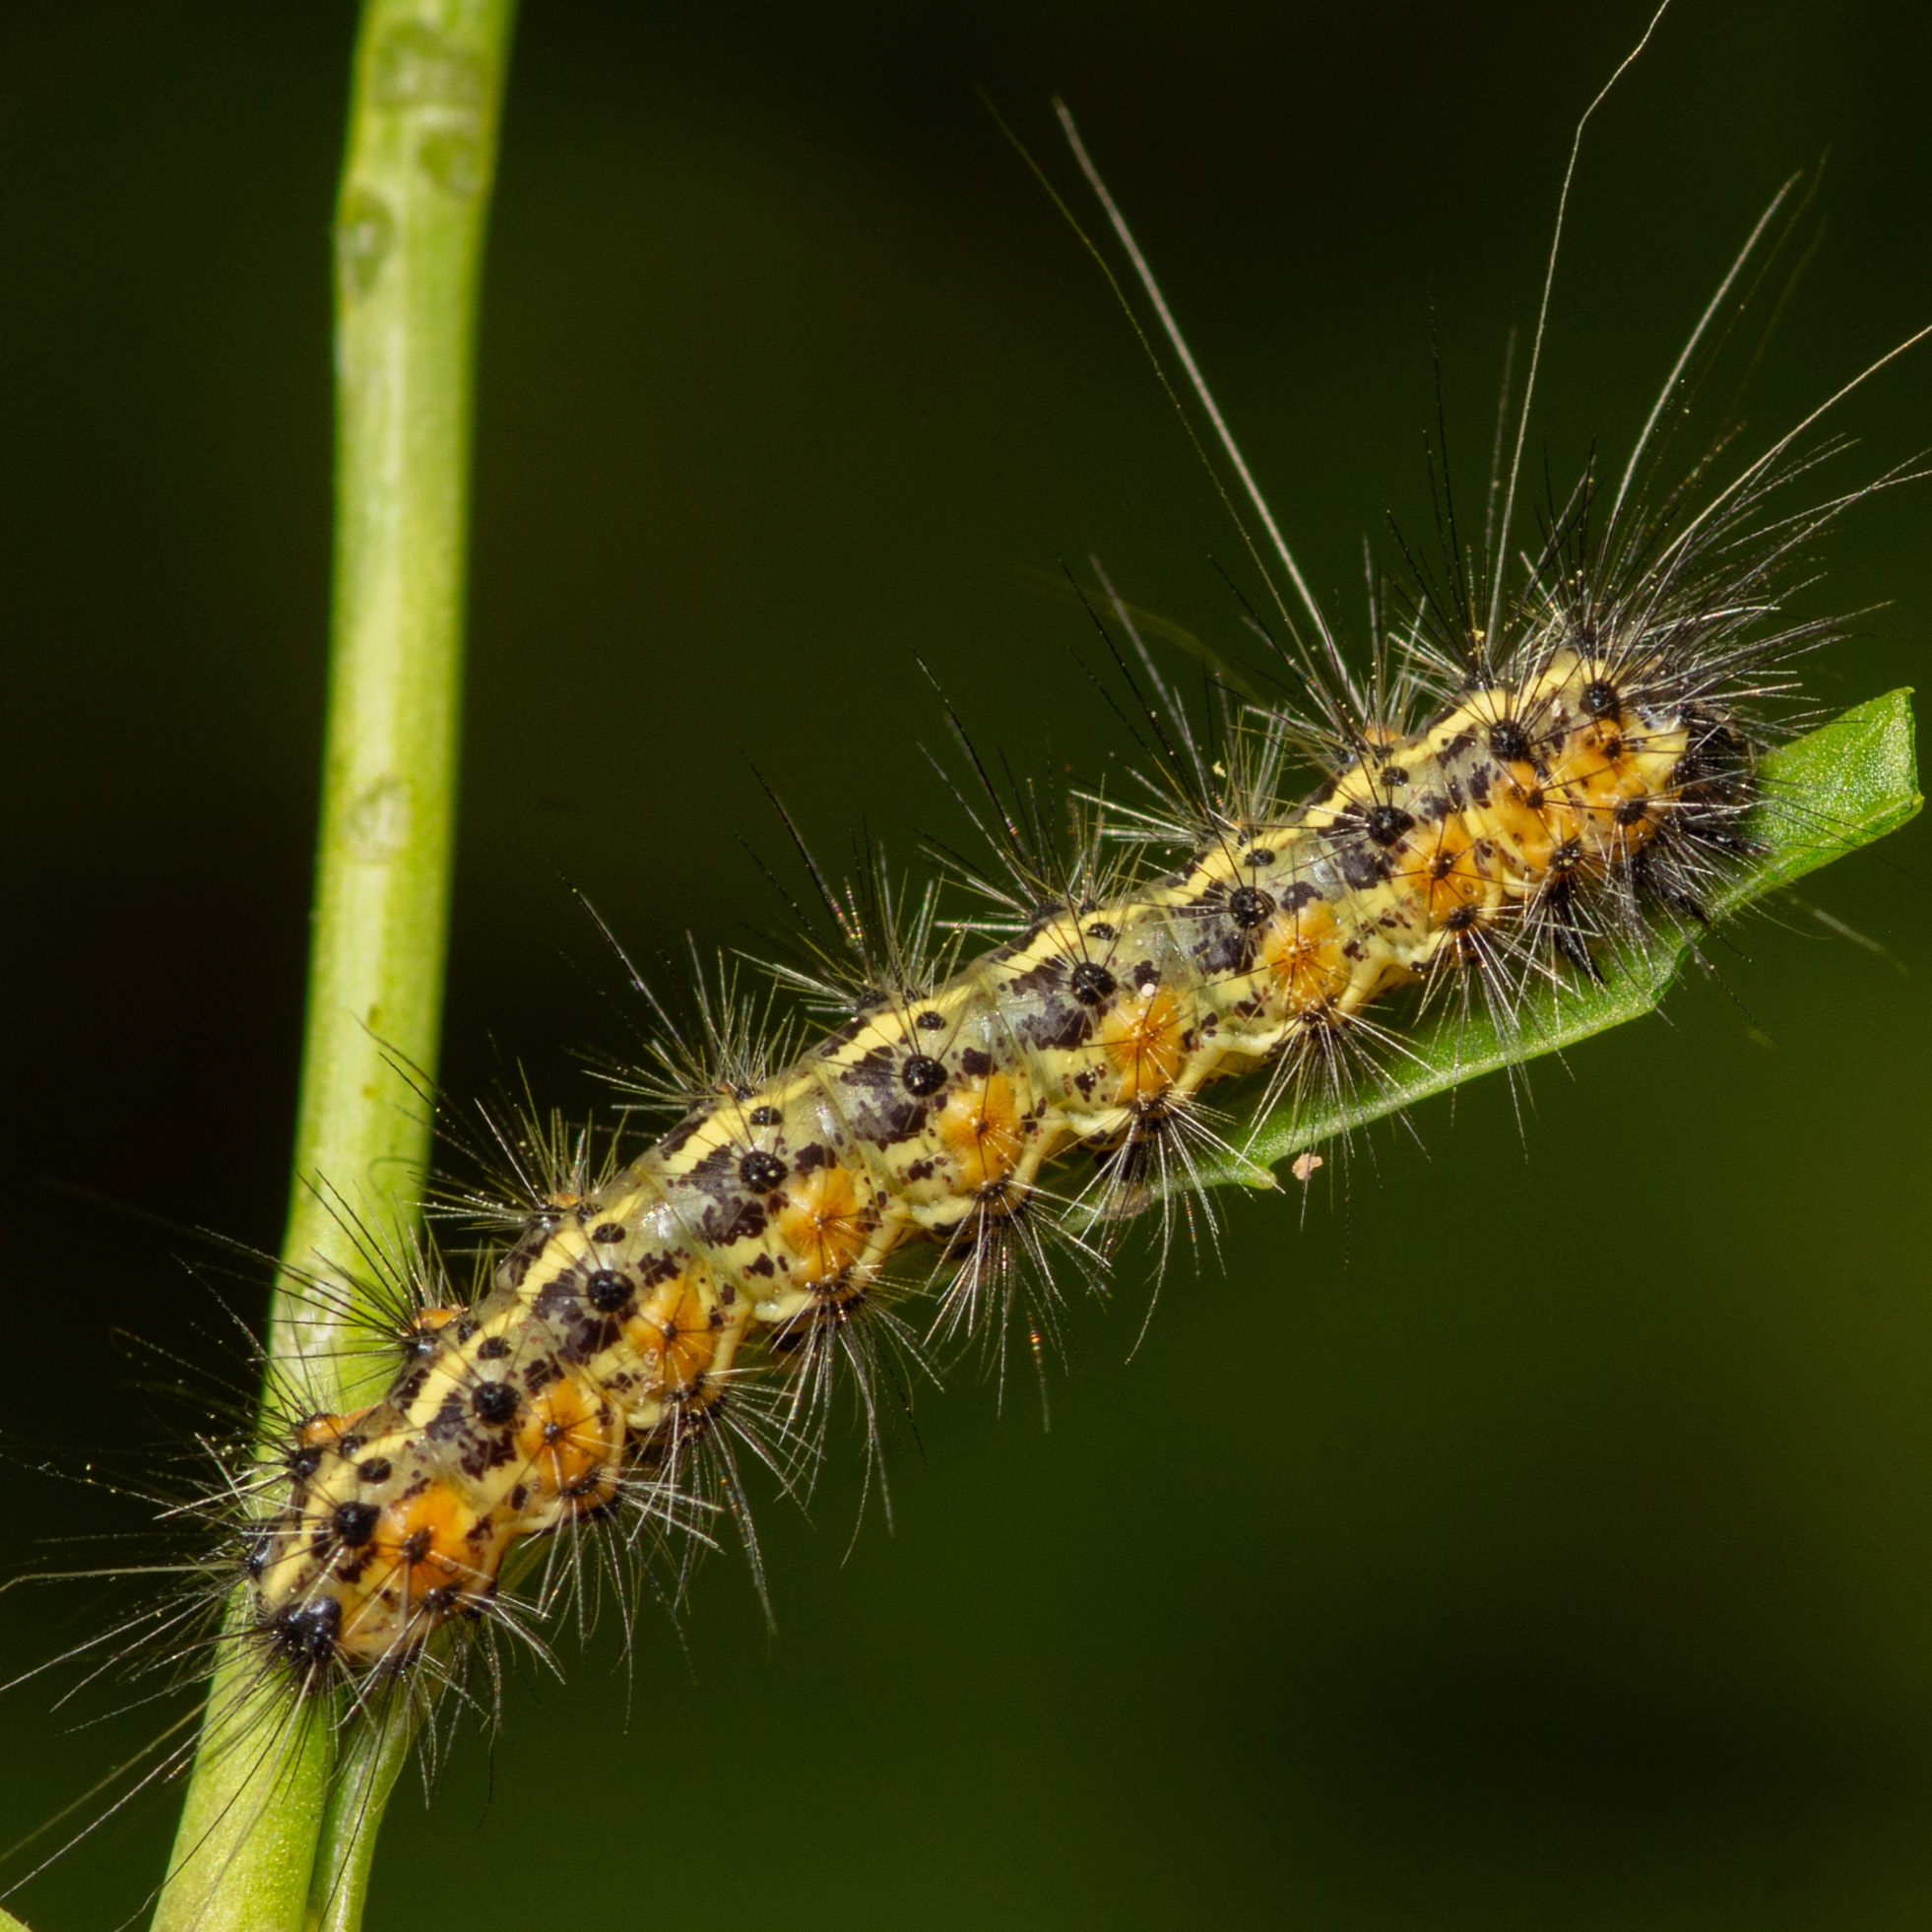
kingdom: Animalia
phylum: Arthropoda
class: Insecta
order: Lepidoptera
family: Erebidae
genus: Estigmene
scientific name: Estigmene acrea
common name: Salt marsh moth
